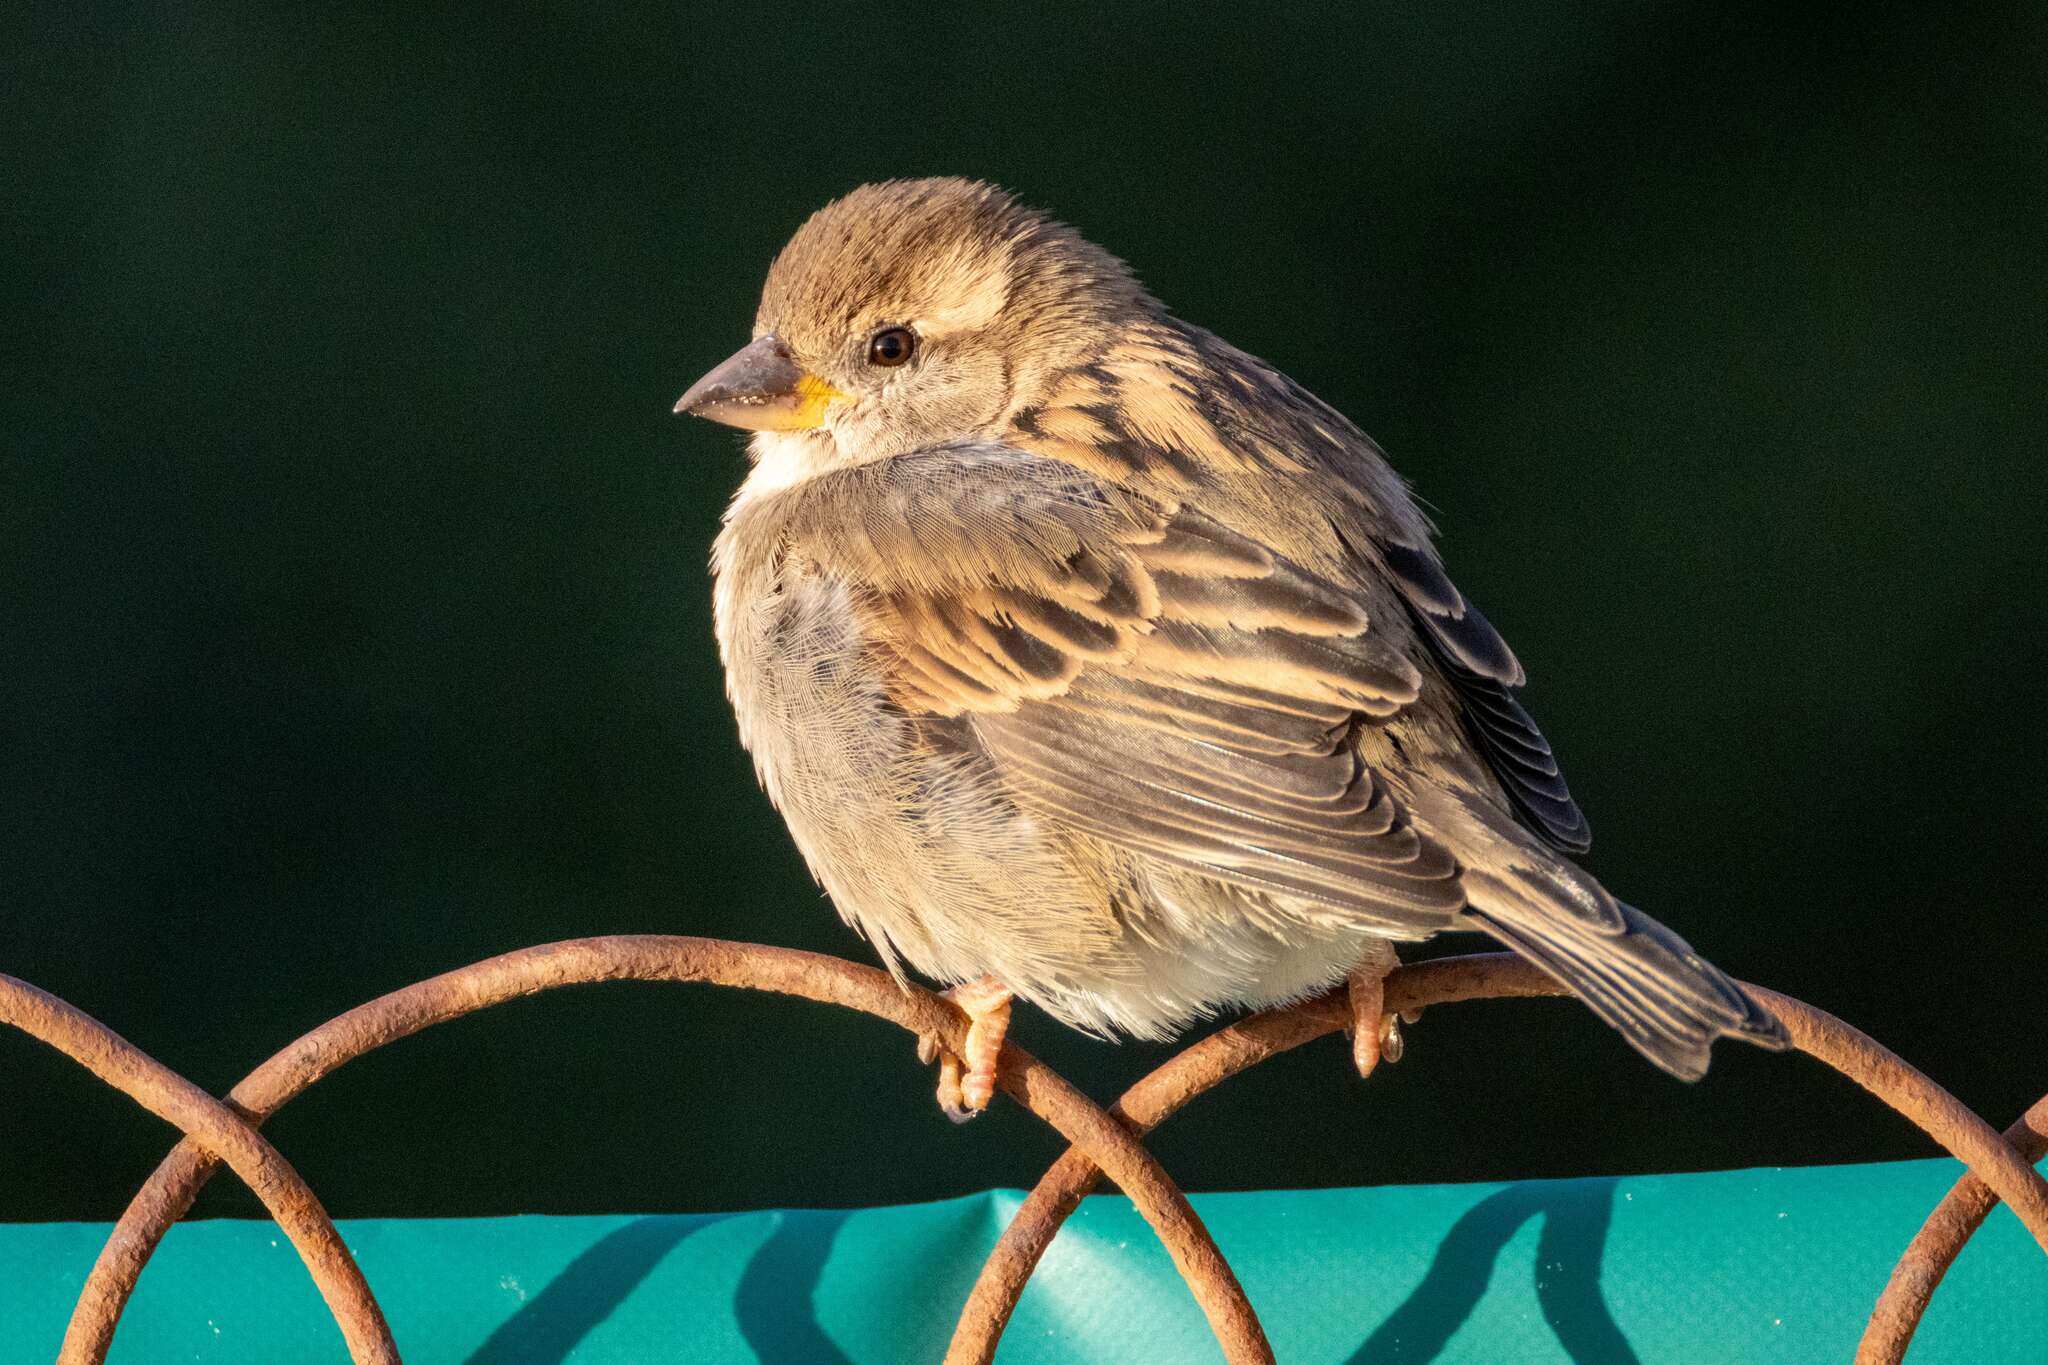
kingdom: Animalia
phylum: Chordata
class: Aves
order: Passeriformes
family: Passeridae
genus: Passer
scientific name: Passer domesticus
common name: House sparrow
